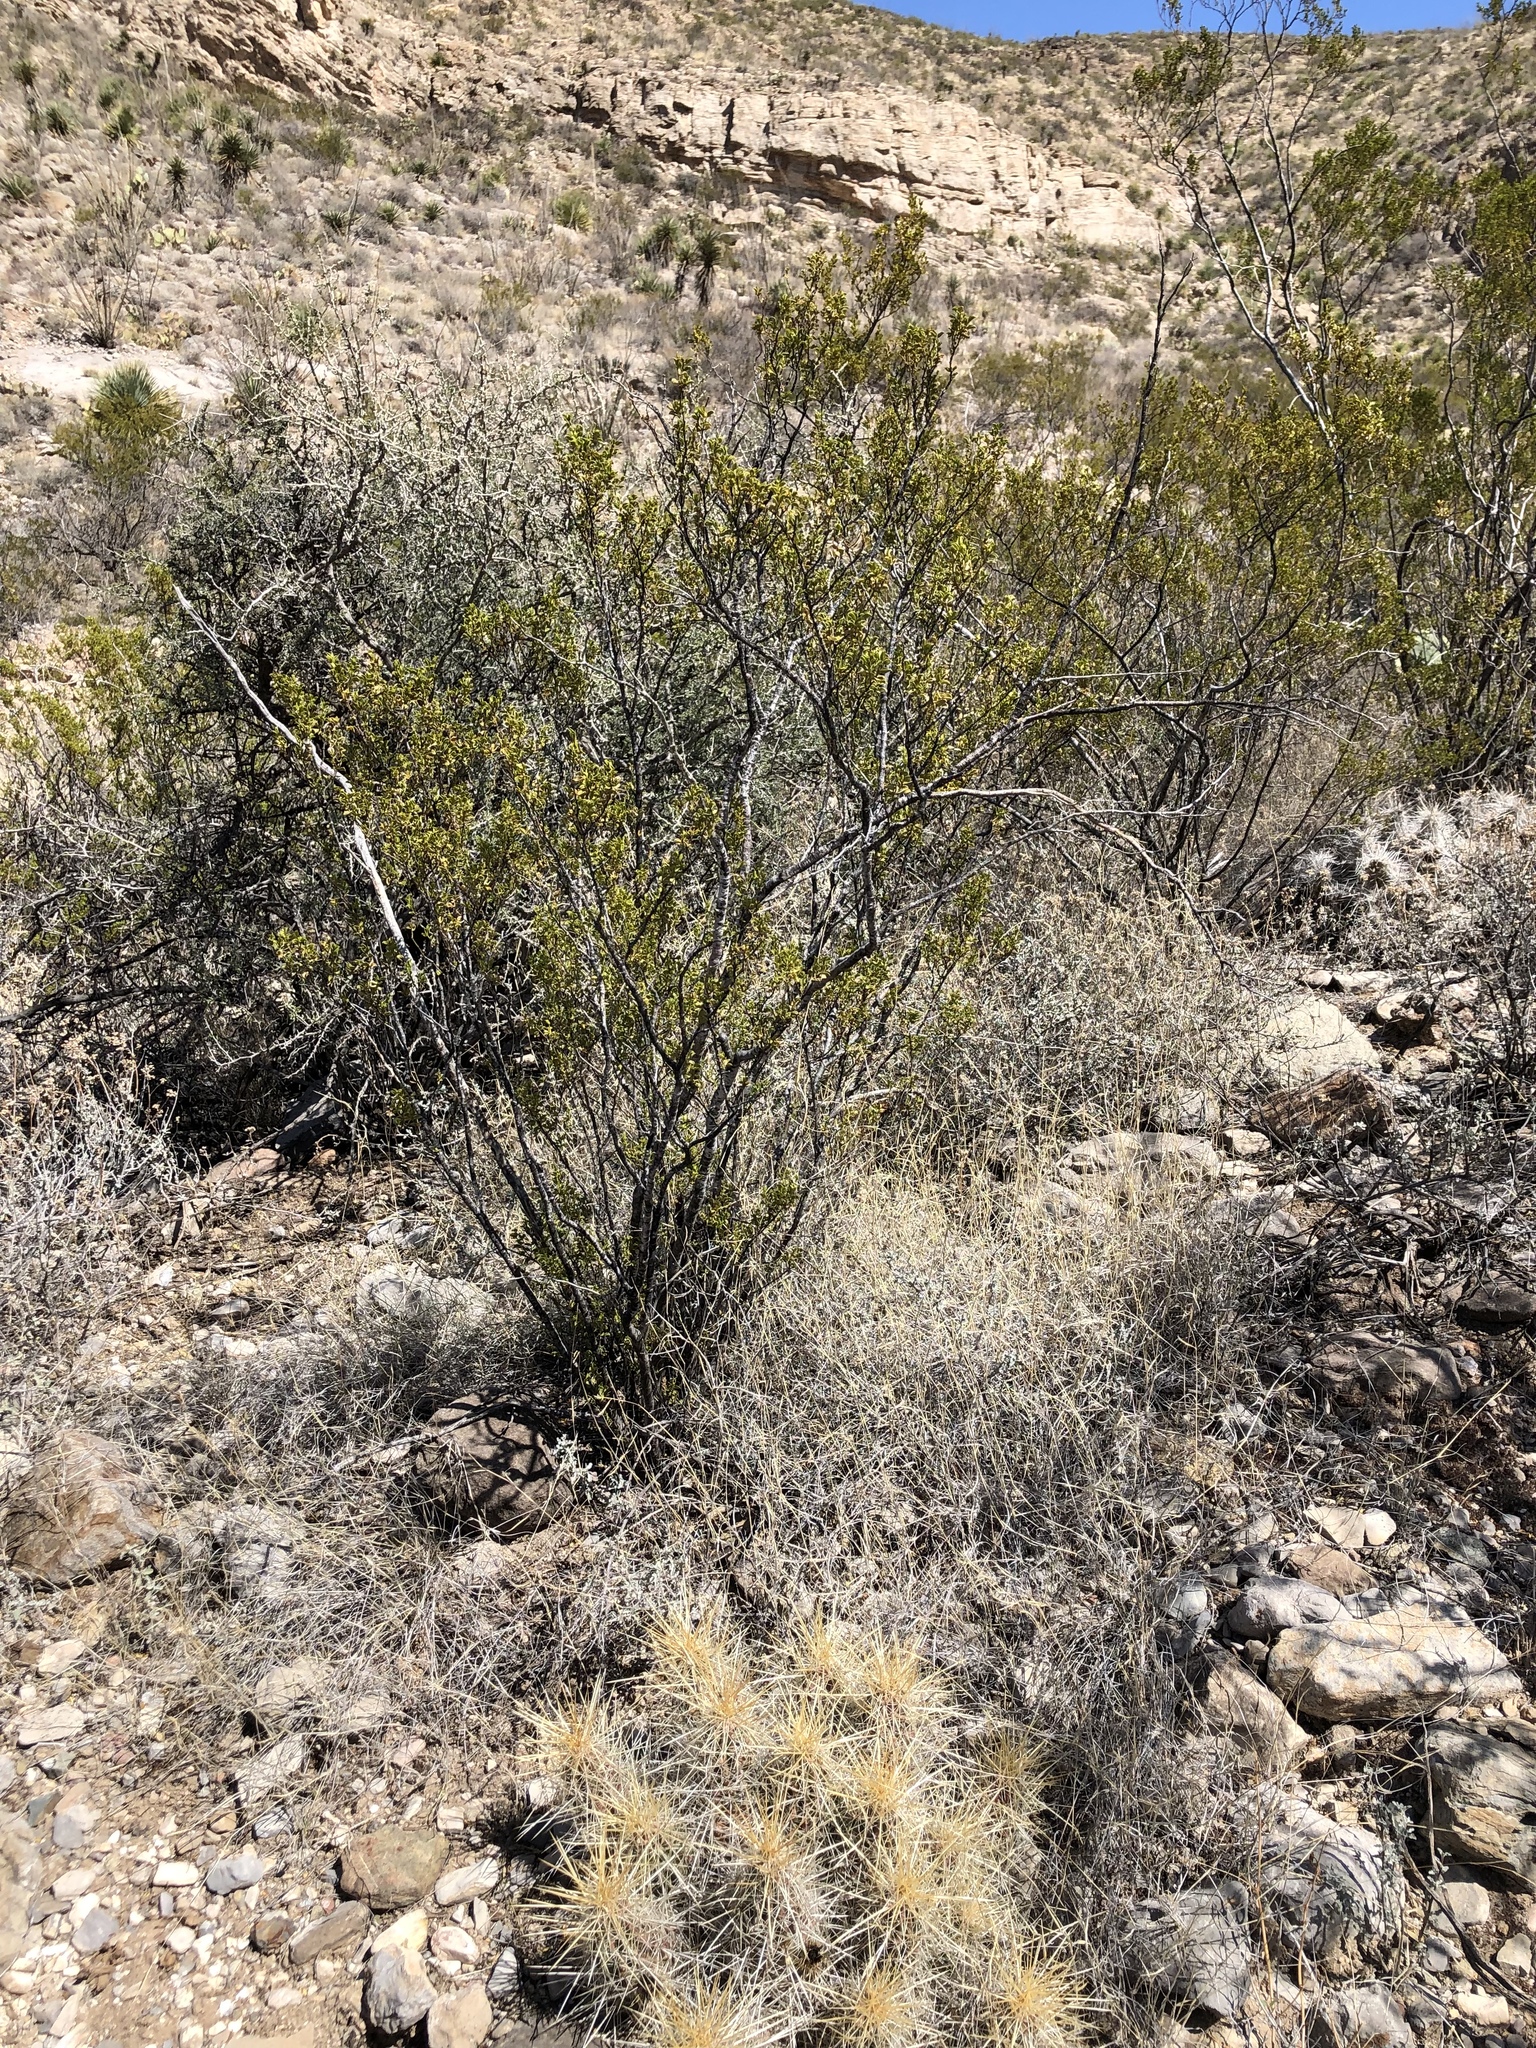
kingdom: Plantae
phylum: Tracheophyta
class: Magnoliopsida
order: Zygophyllales
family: Zygophyllaceae
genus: Larrea
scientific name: Larrea tridentata
